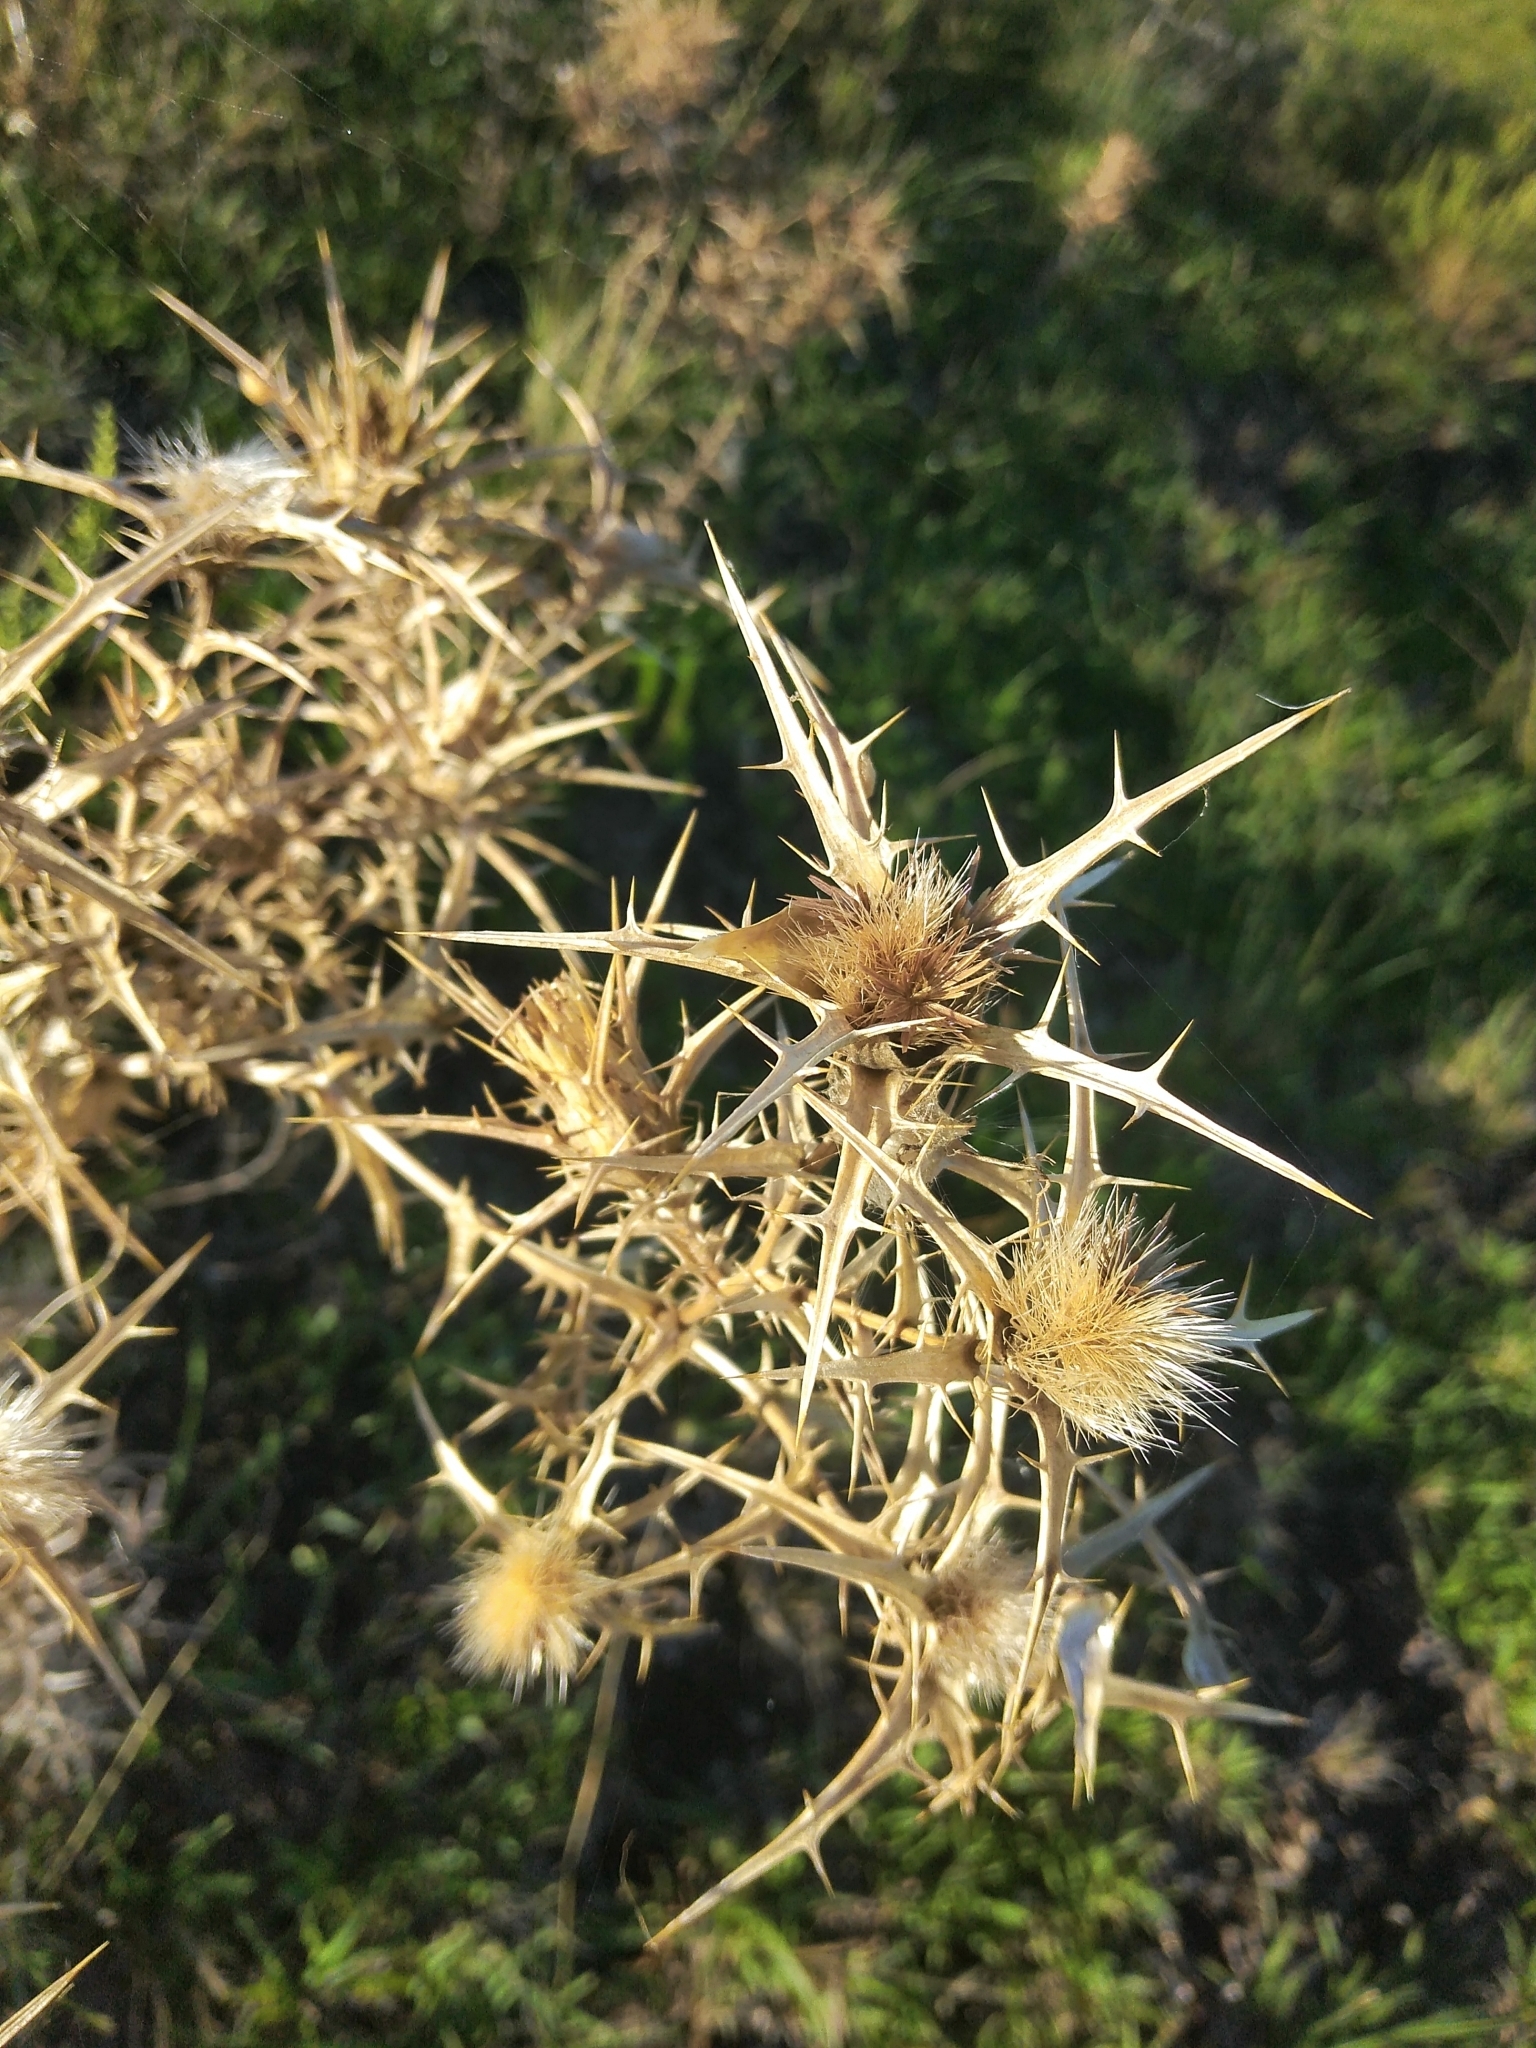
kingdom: Plantae
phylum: Tracheophyta
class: Magnoliopsida
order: Asterales
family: Asteraceae
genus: Carthamus
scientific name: Carthamus lanatus
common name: Downy safflower
